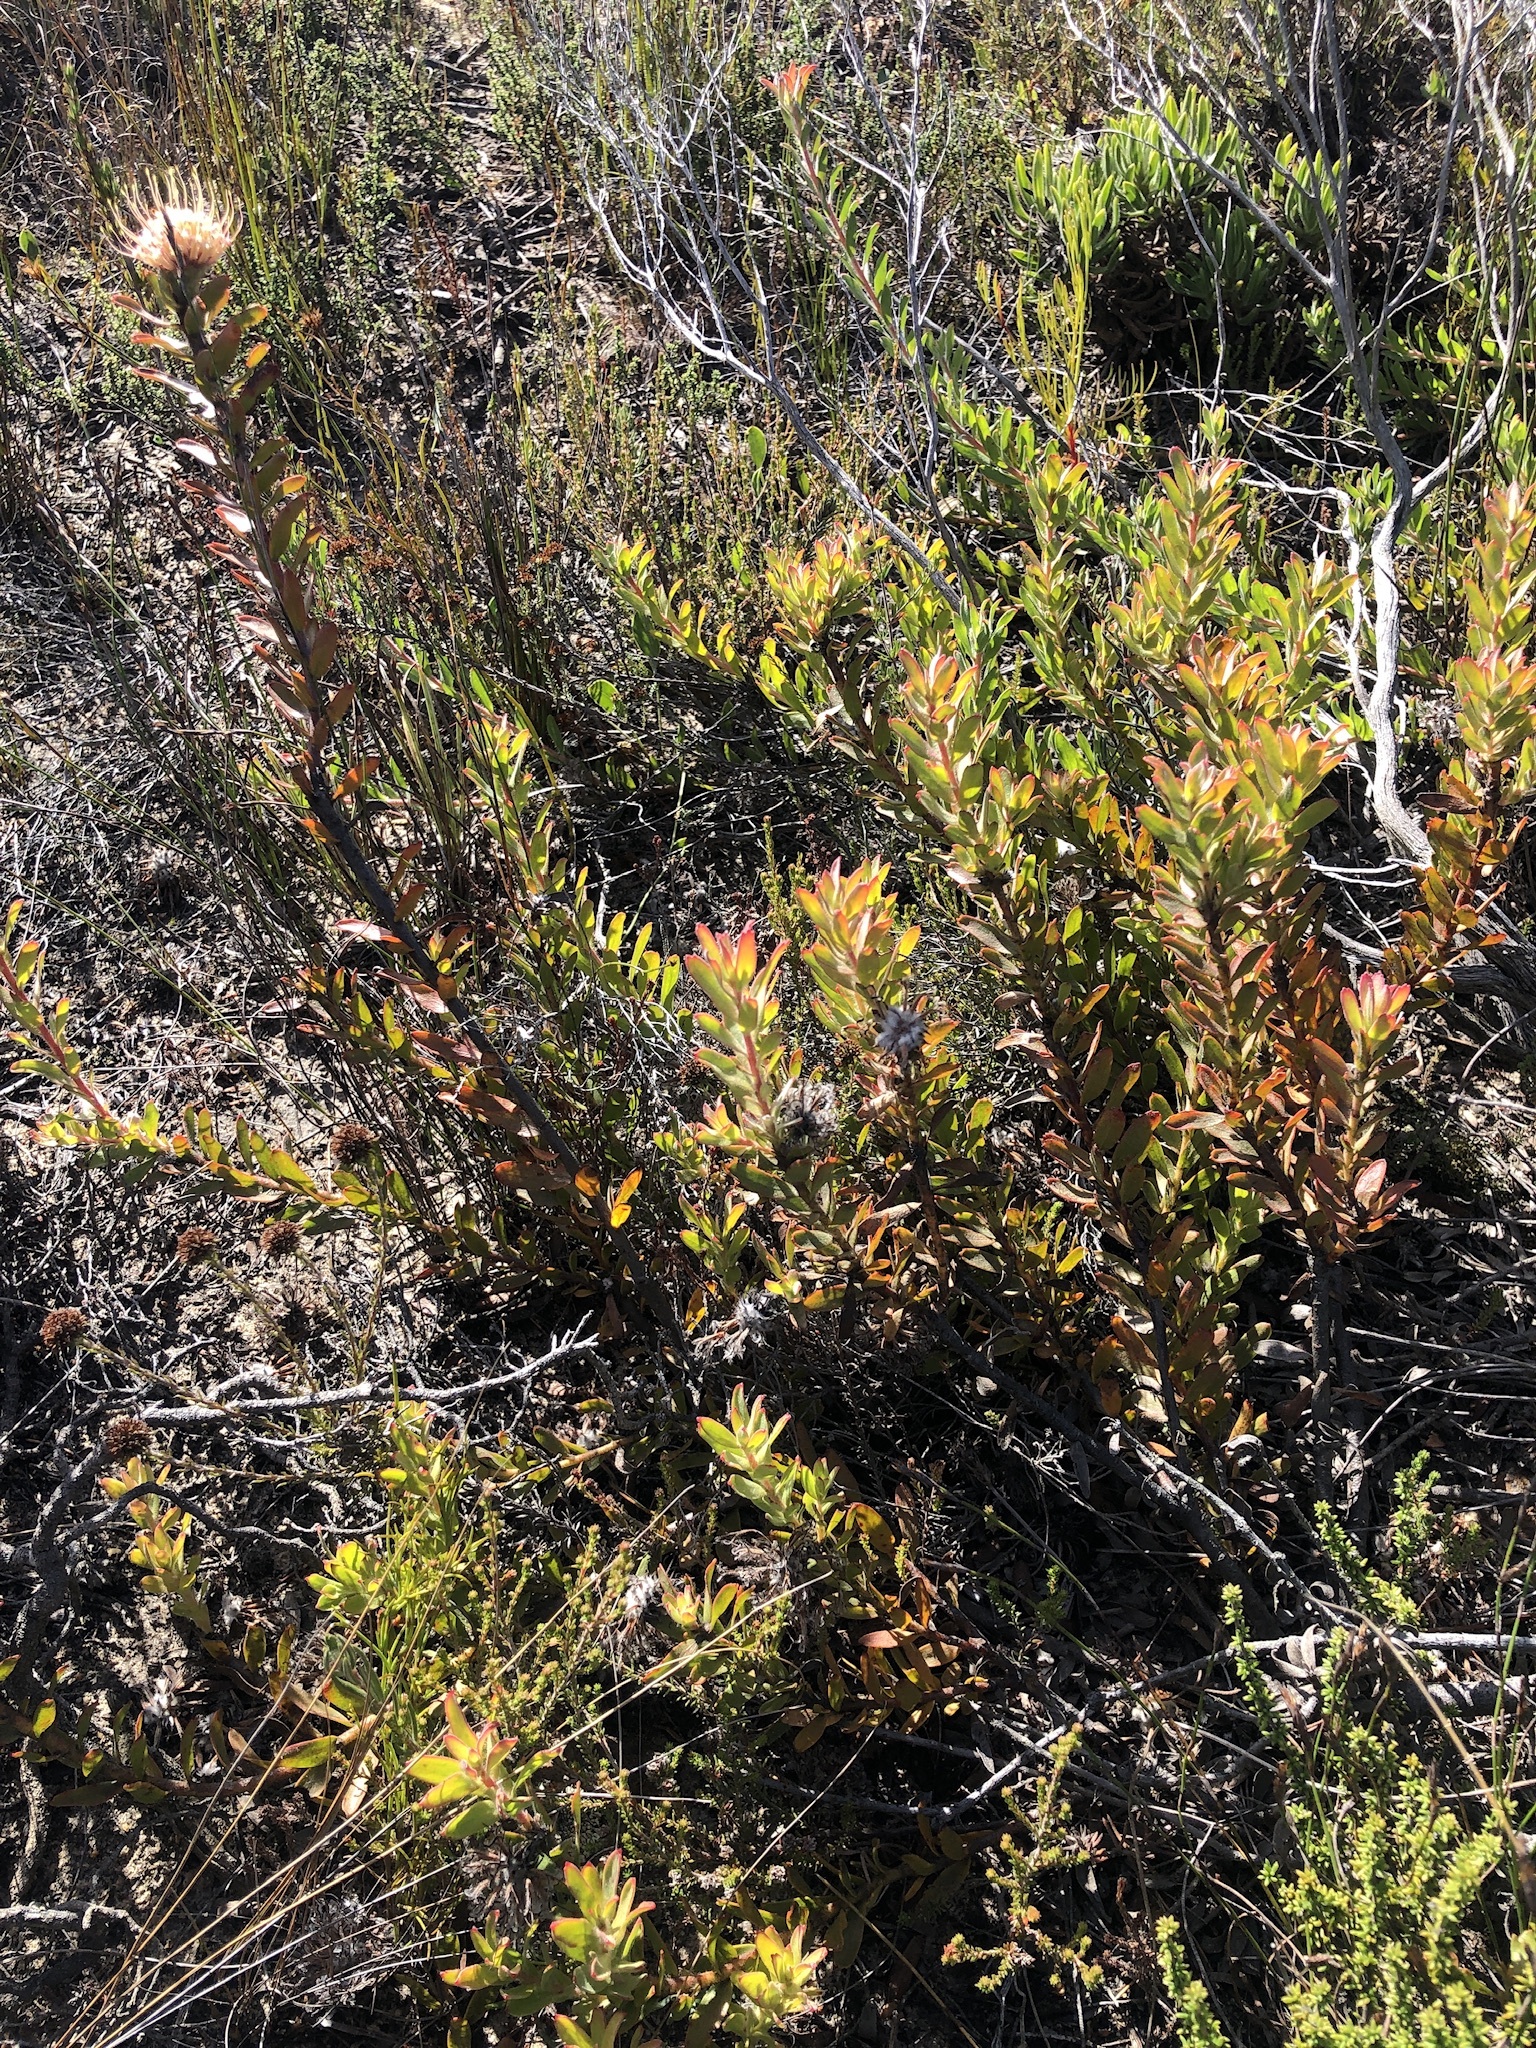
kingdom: Plantae
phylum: Tracheophyta
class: Magnoliopsida
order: Proteales
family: Proteaceae
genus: Leucospermum
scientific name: Leucospermum heterophyllum
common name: Trident pincushion
